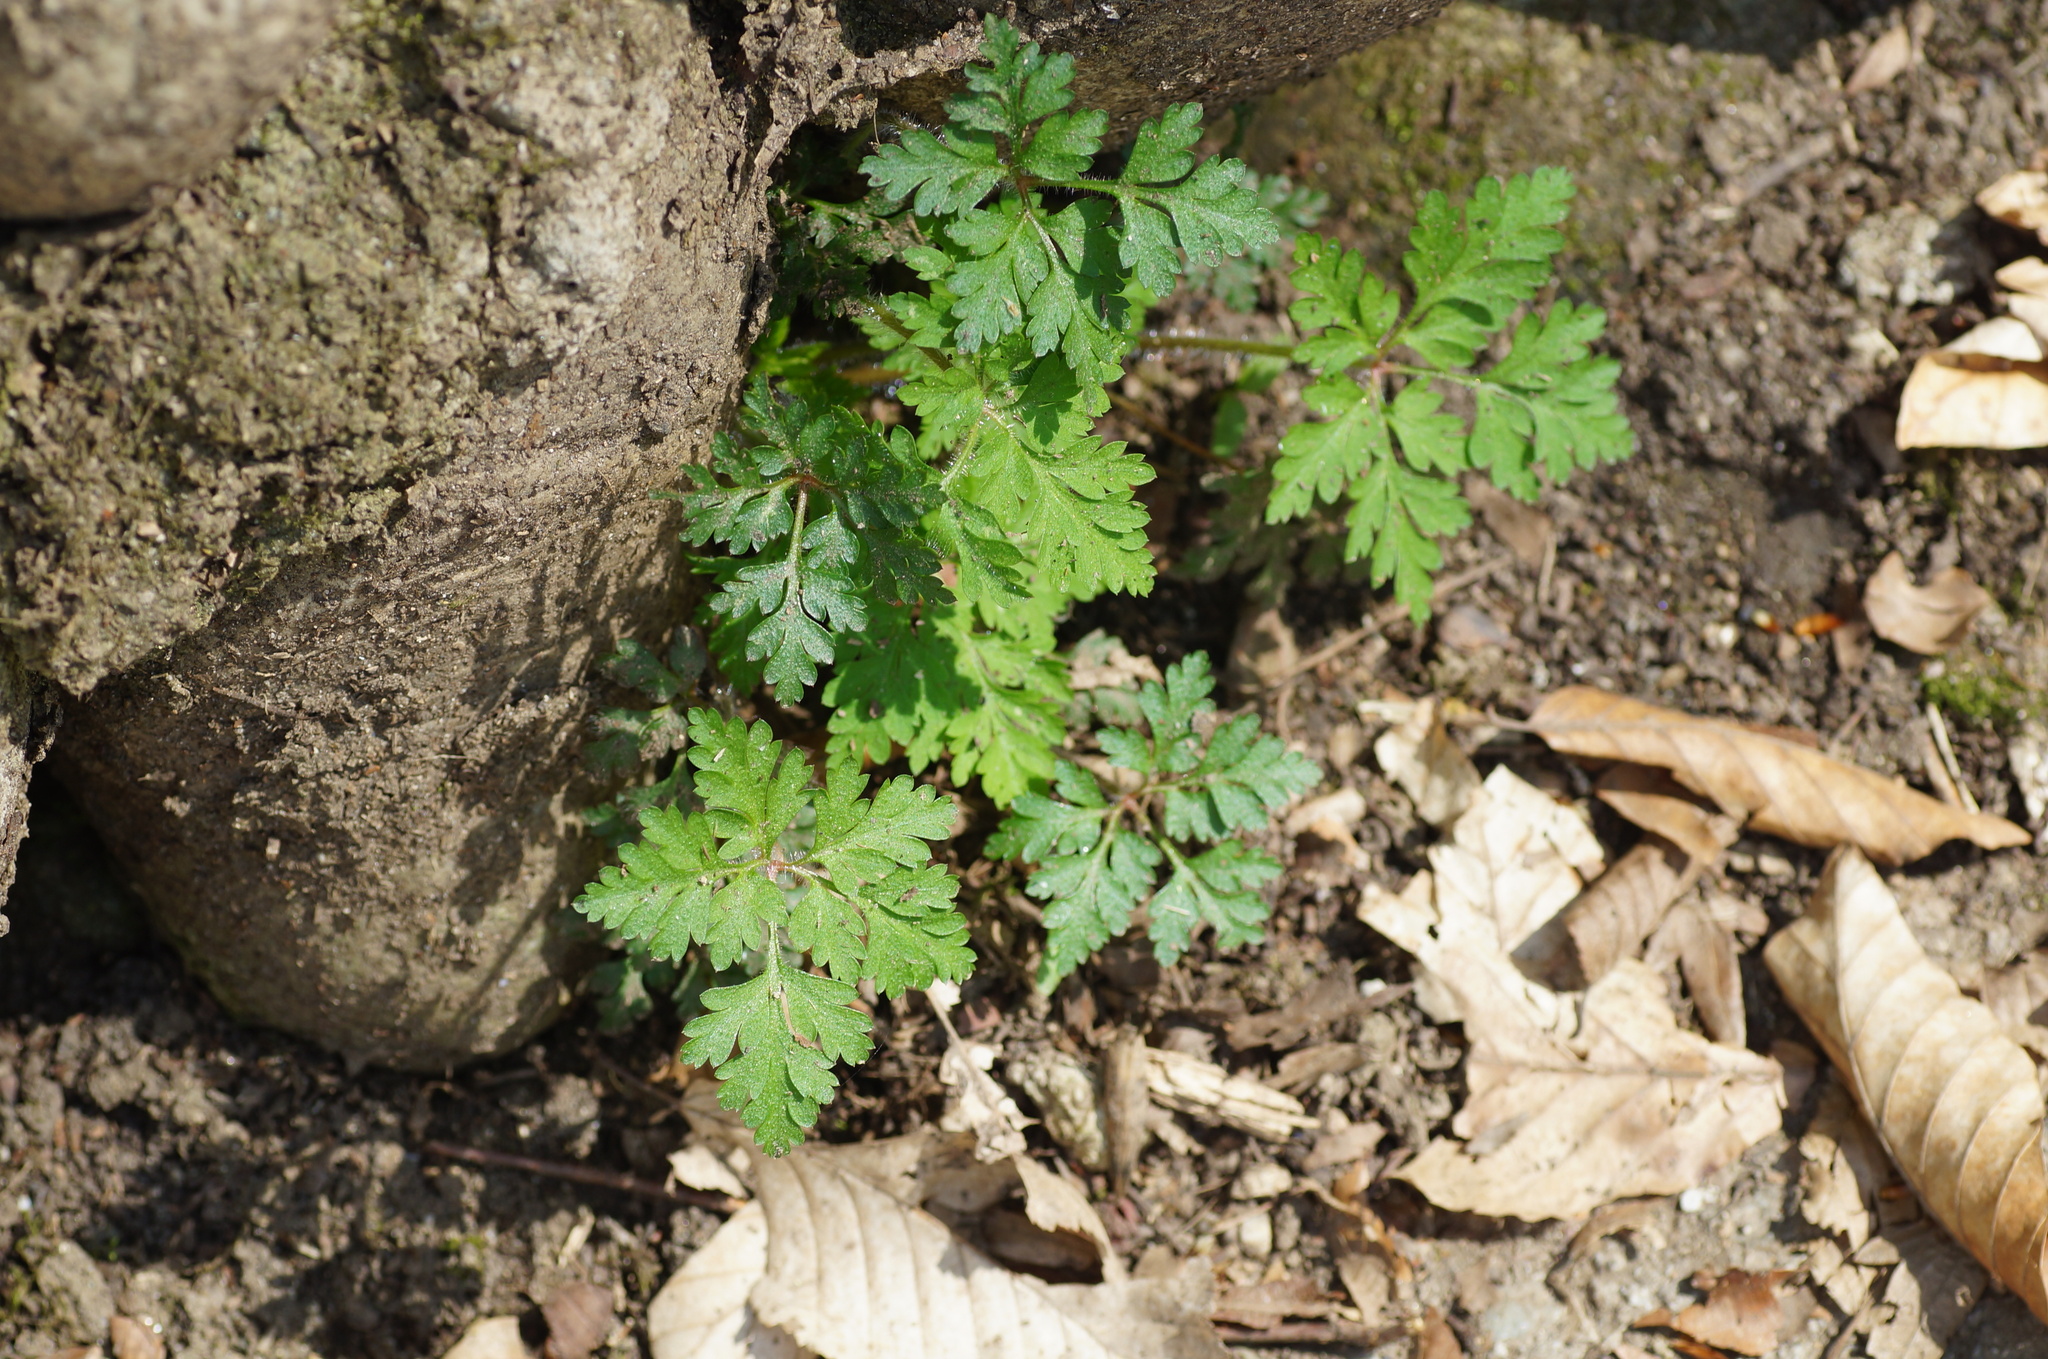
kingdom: Plantae
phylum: Tracheophyta
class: Magnoliopsida
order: Geraniales
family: Geraniaceae
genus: Geranium
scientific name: Geranium robertianum
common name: Herb-robert
